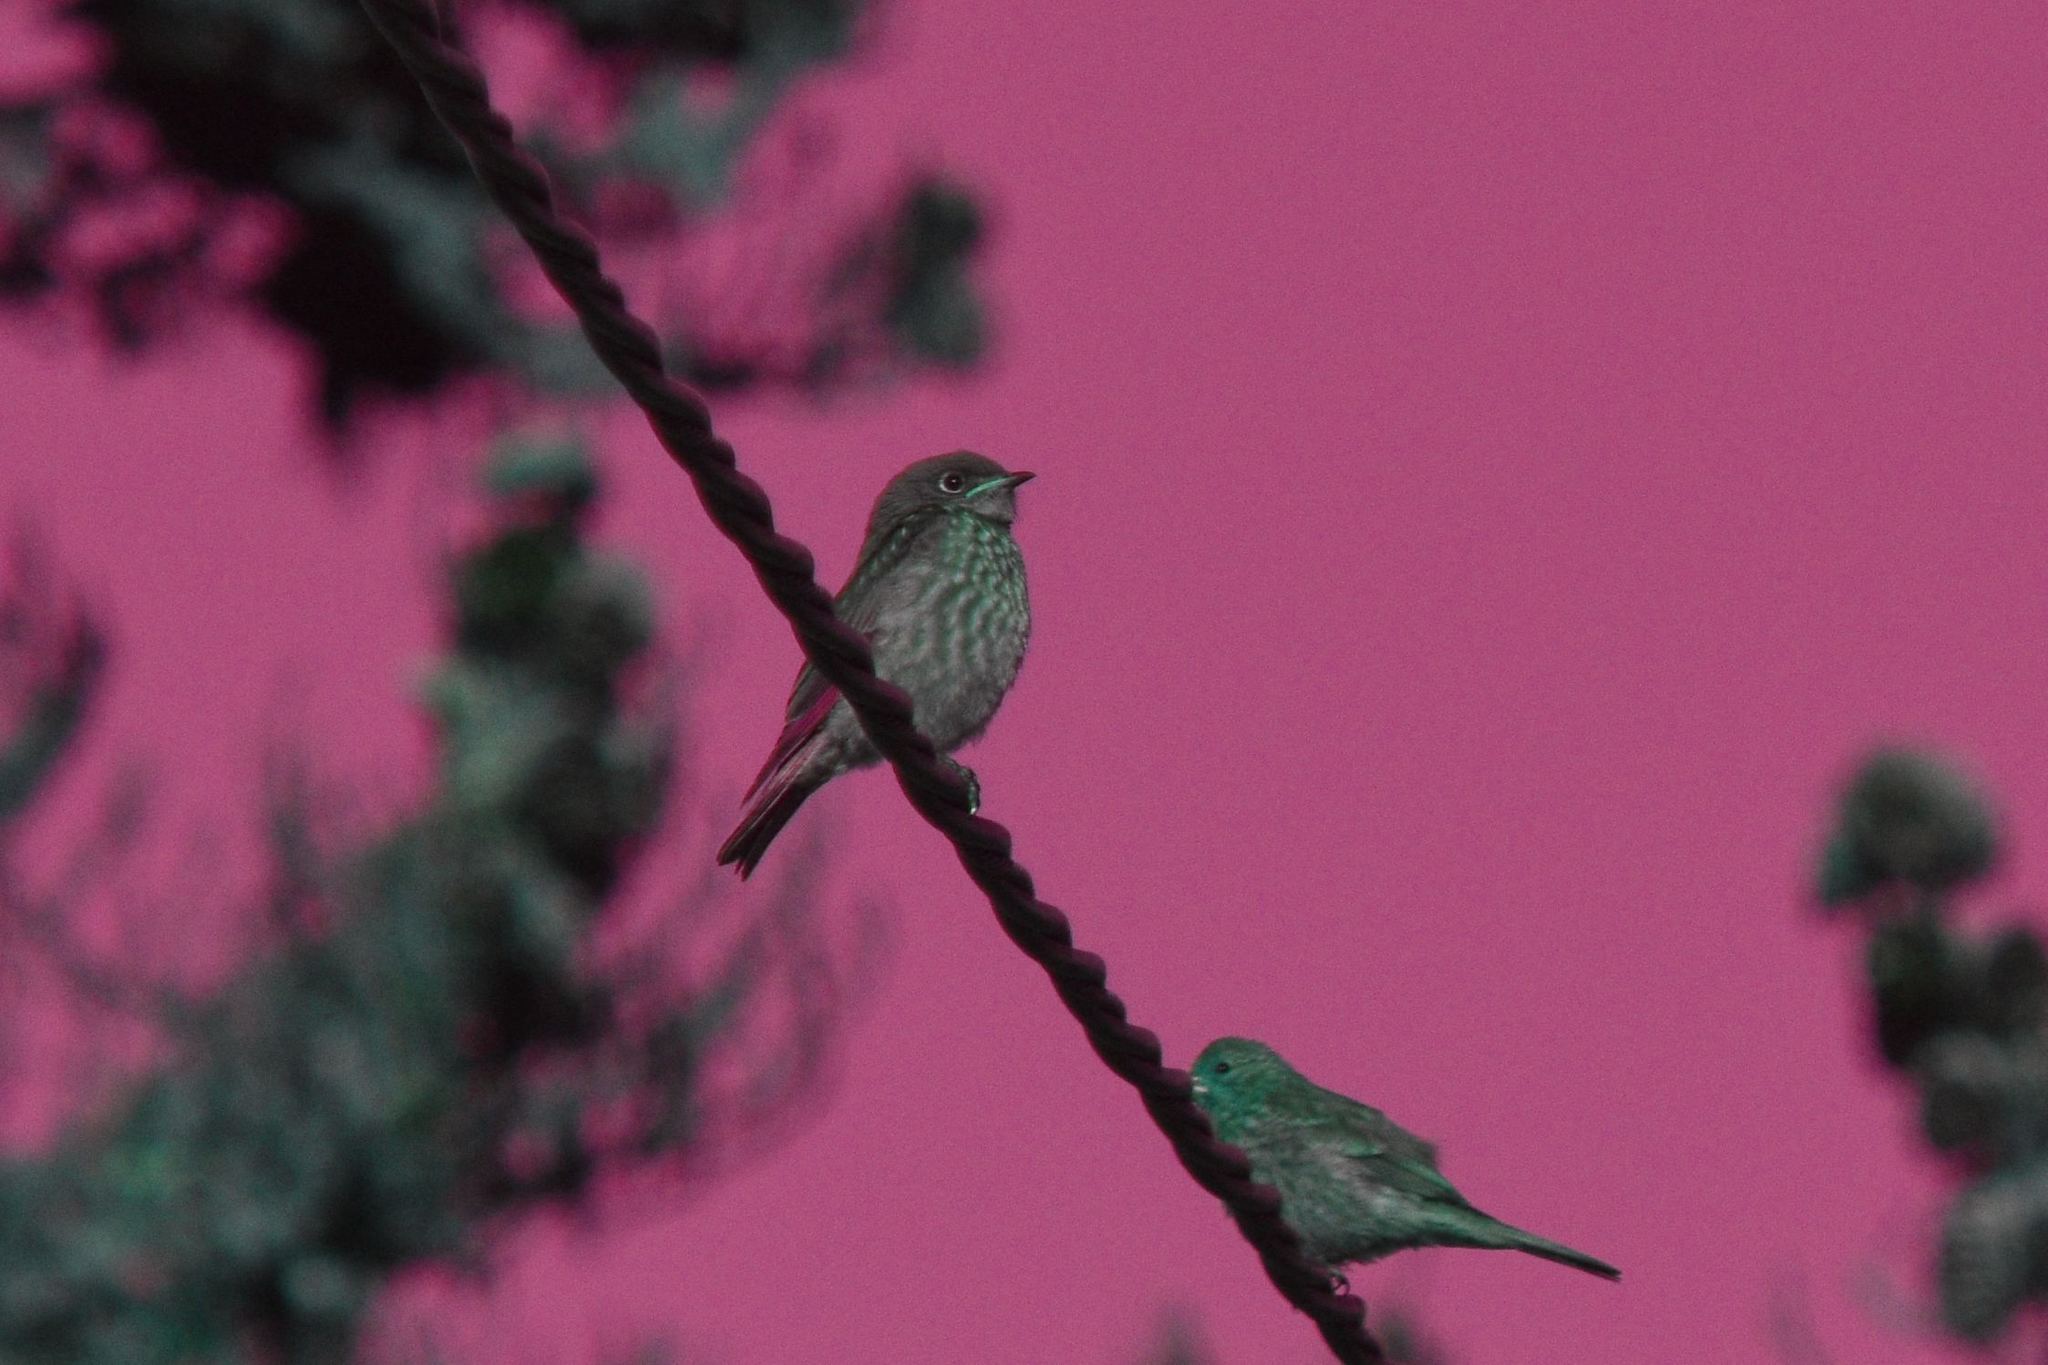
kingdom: Animalia
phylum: Chordata
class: Aves
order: Passeriformes
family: Turdidae
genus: Sialia
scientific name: Sialia mexicana
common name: Western bluebird
